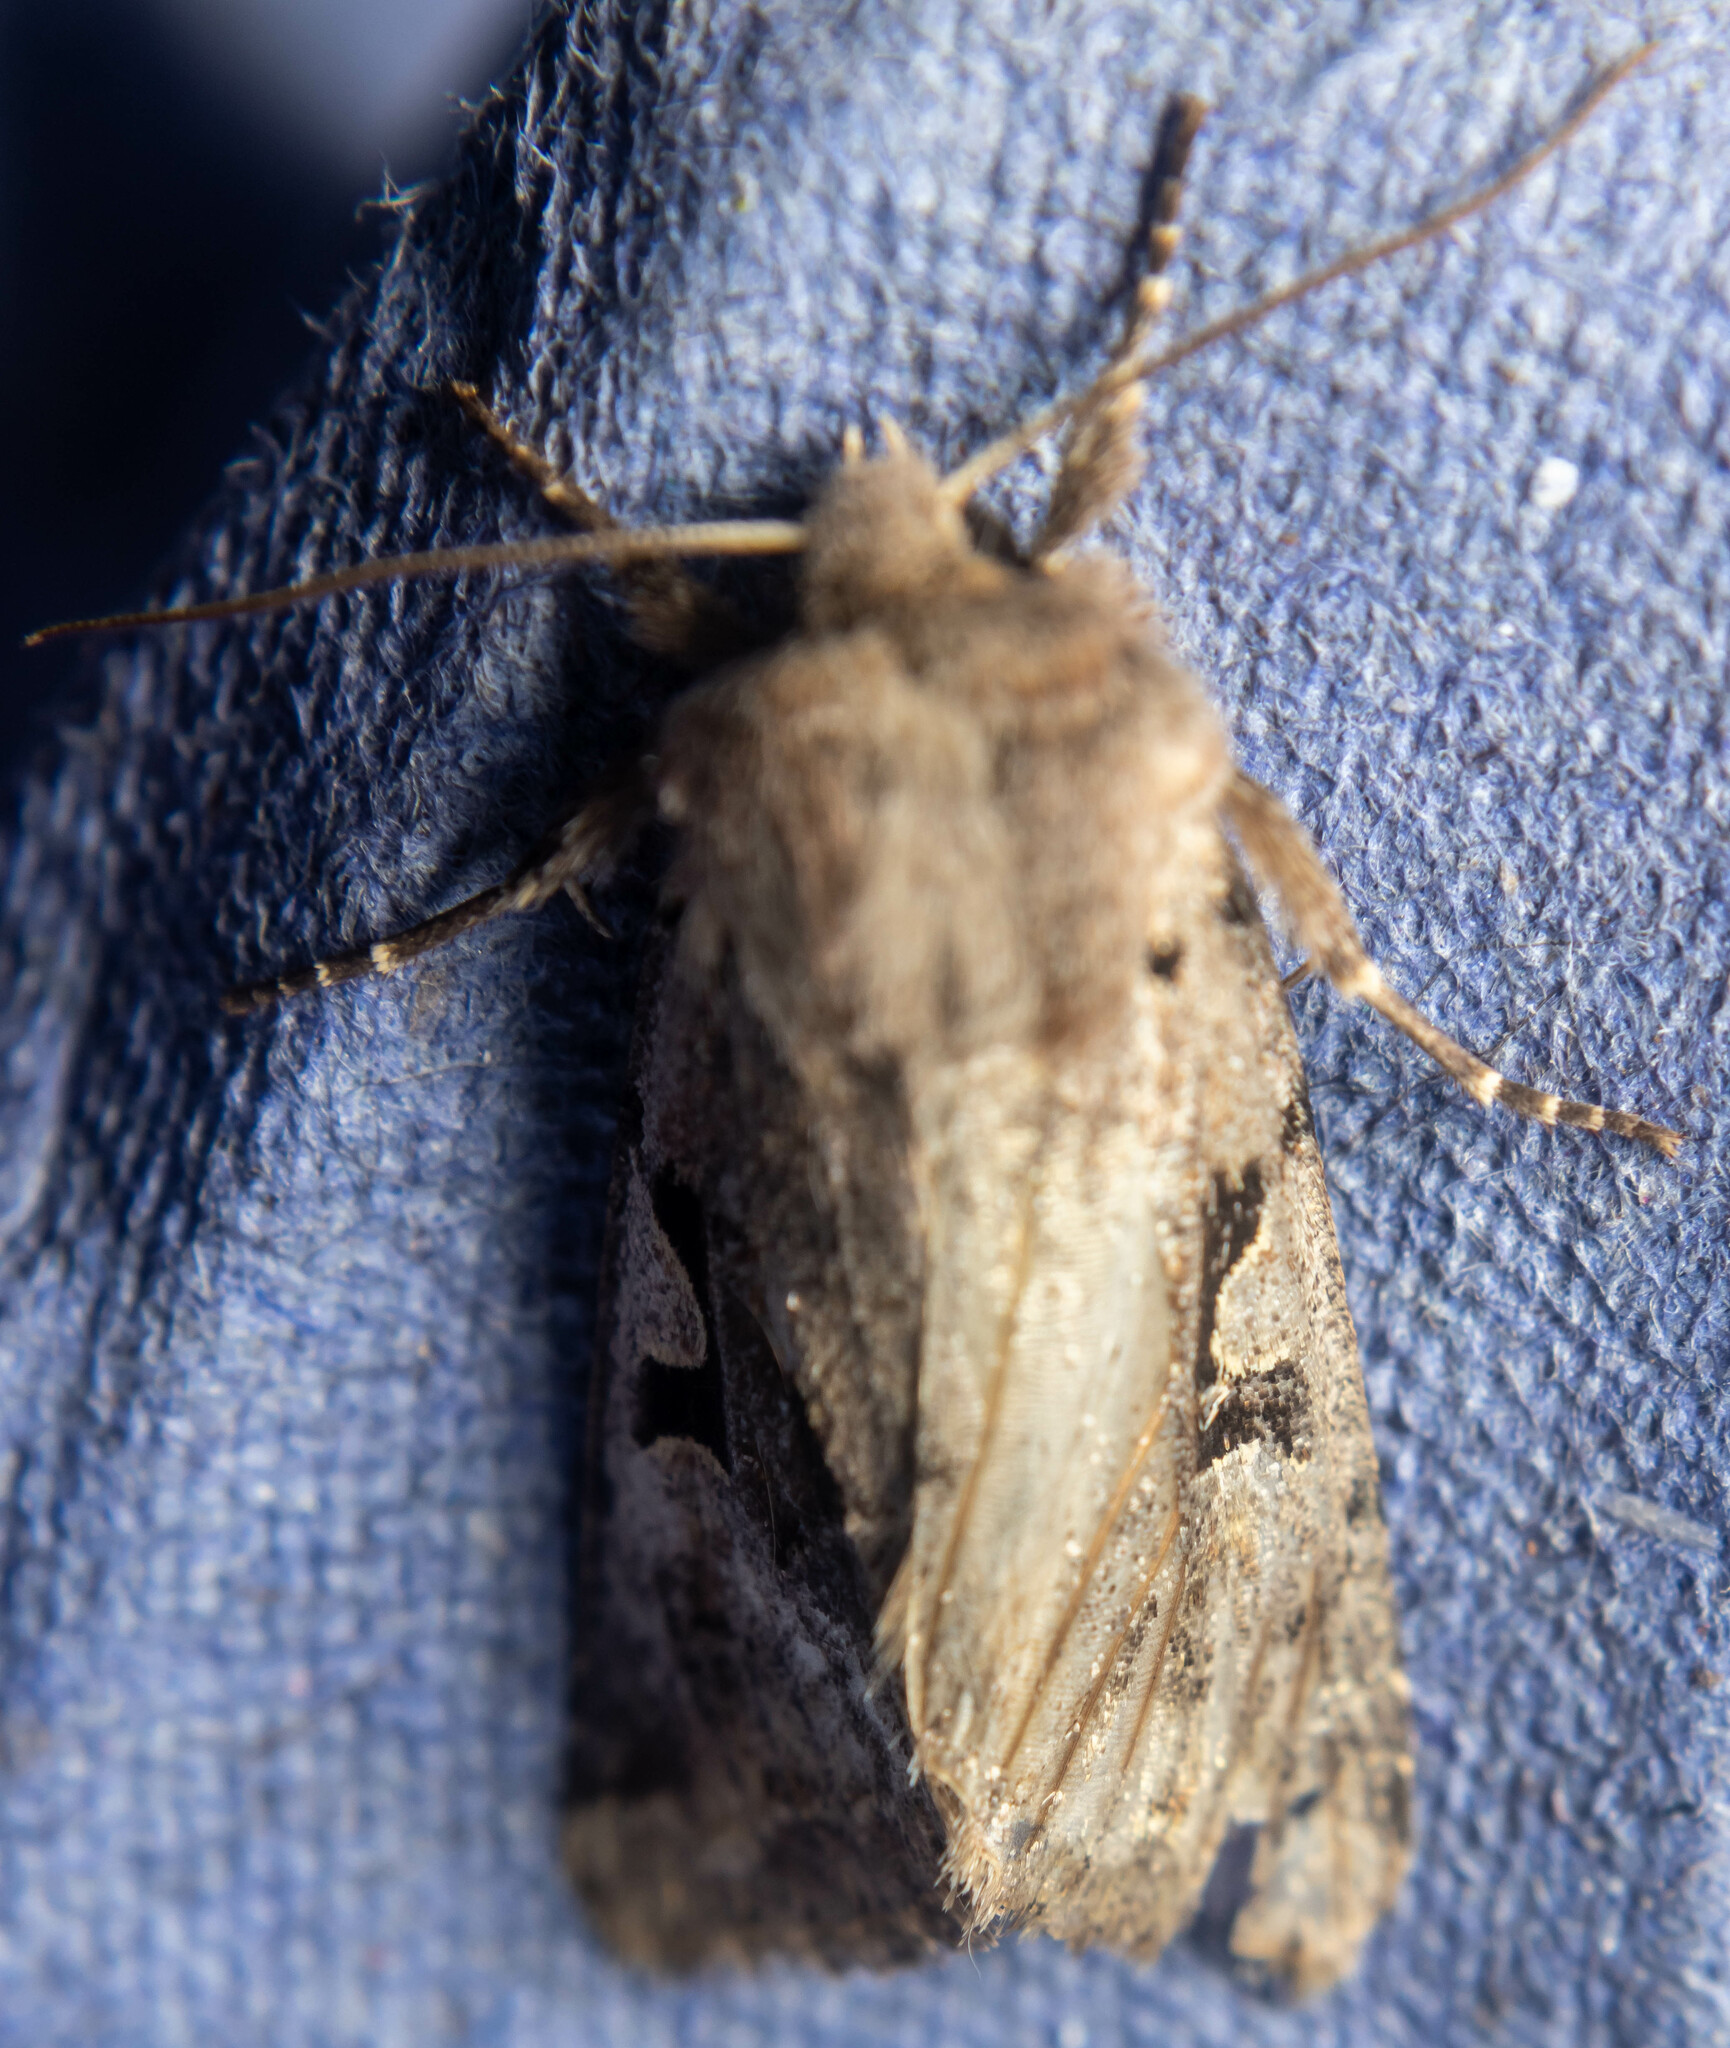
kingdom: Animalia
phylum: Arthropoda
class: Insecta
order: Lepidoptera
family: Noctuidae
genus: Orthosia
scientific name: Orthosia gothica
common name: Hebrew character
